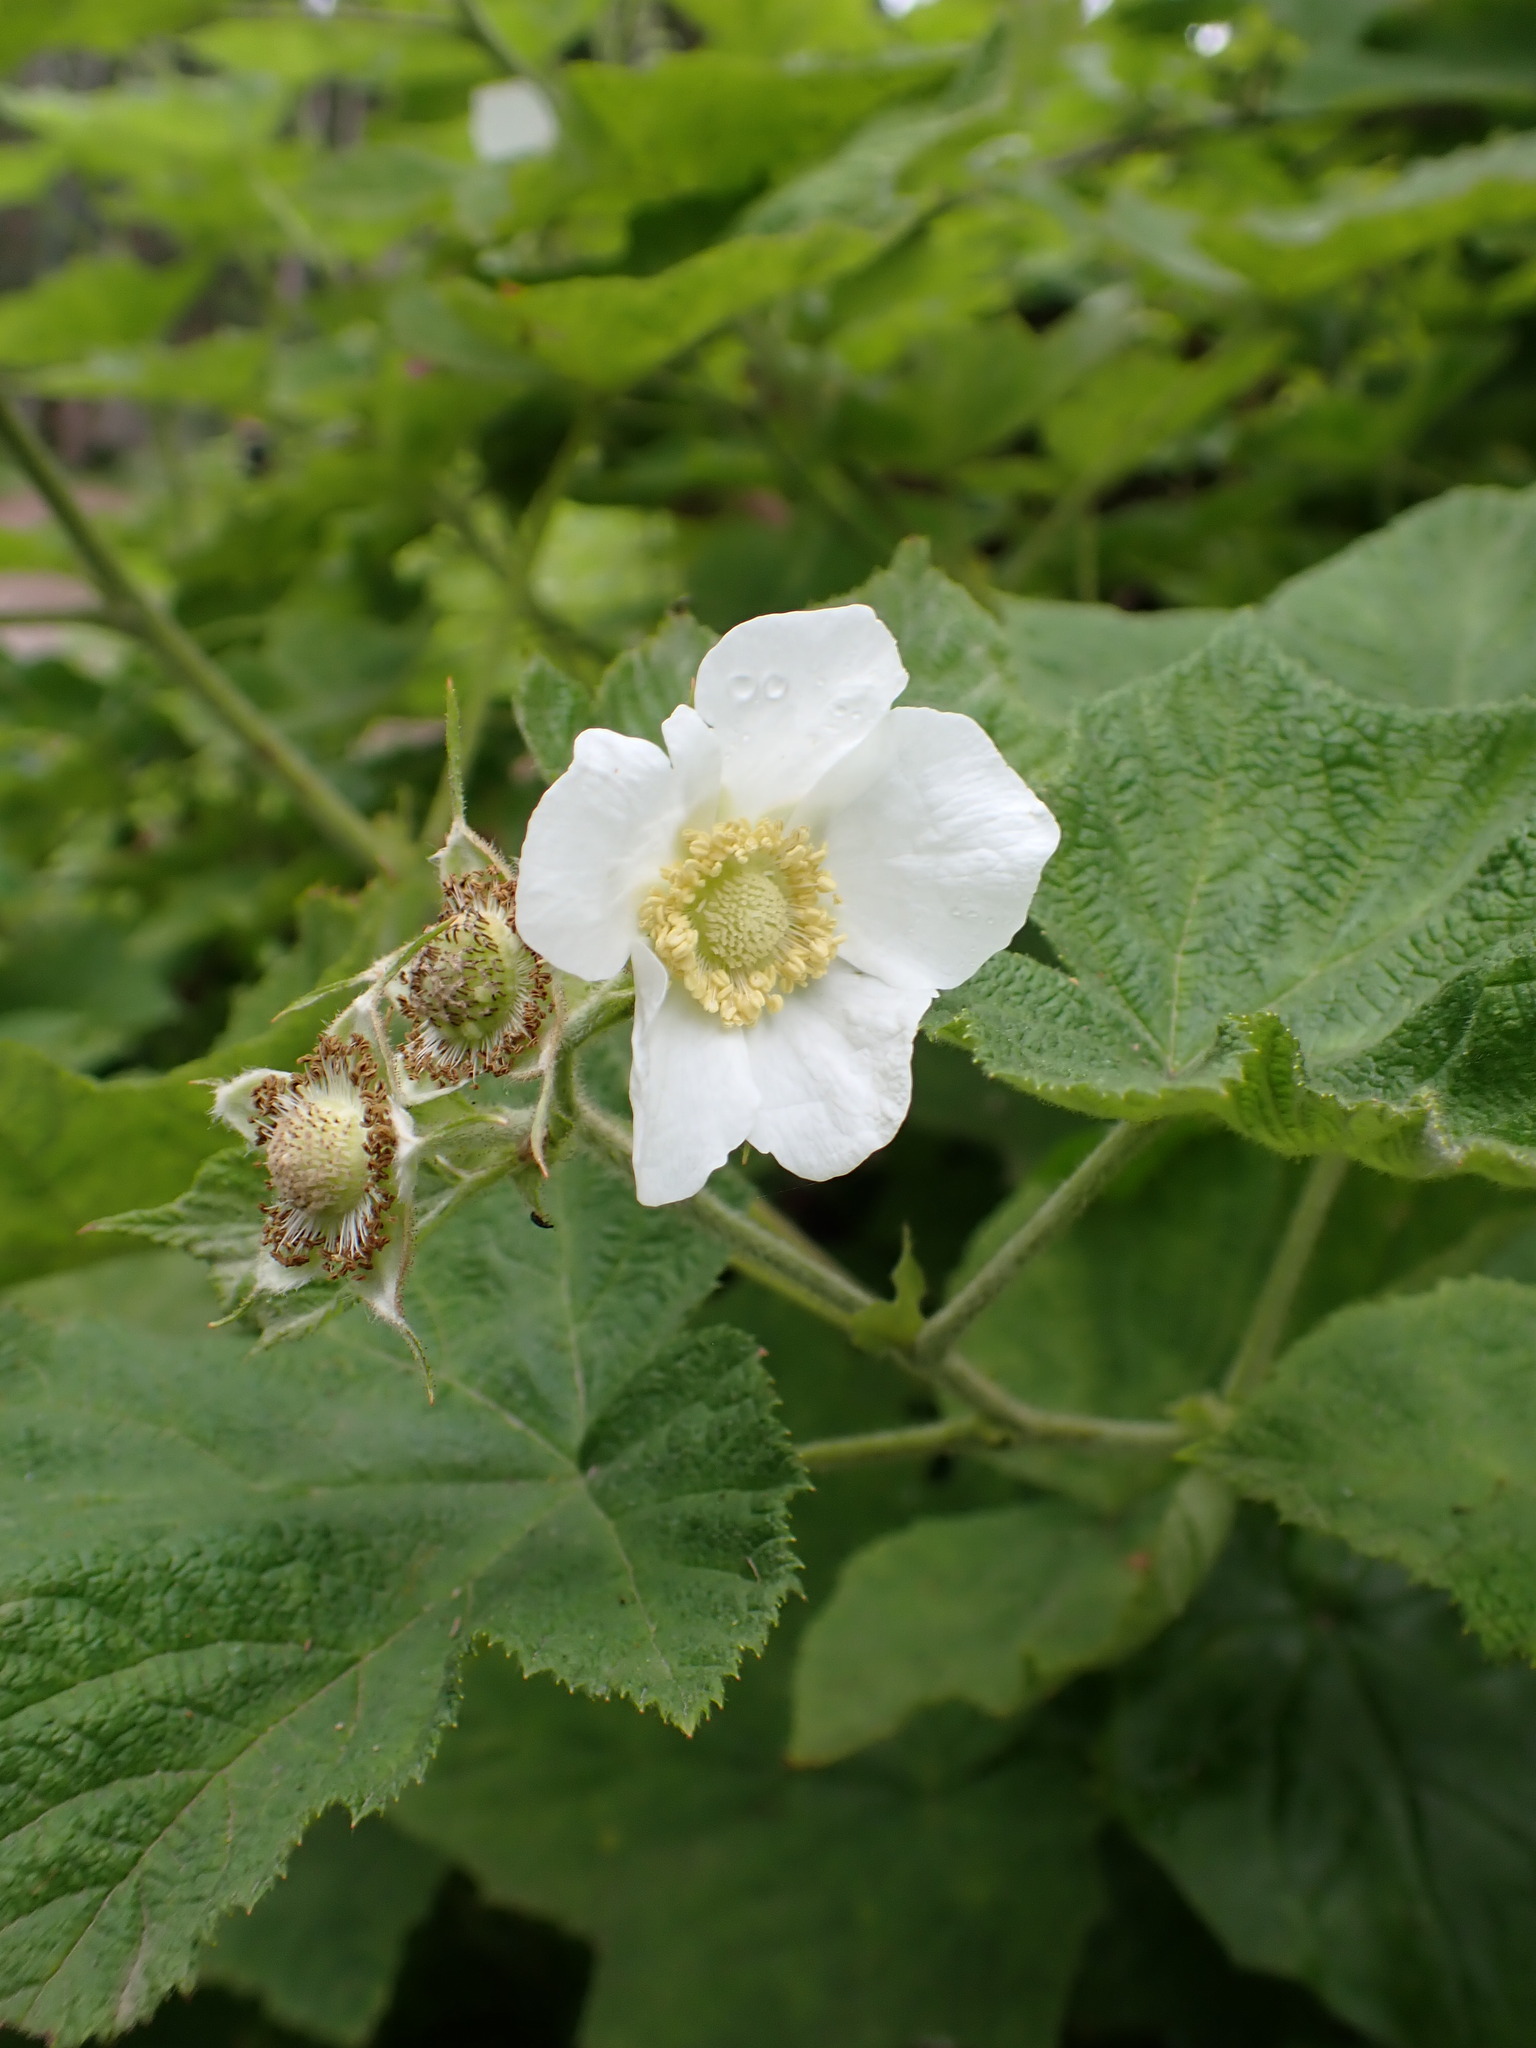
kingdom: Plantae
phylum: Tracheophyta
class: Magnoliopsida
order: Rosales
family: Rosaceae
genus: Rubus
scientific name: Rubus parviflorus
